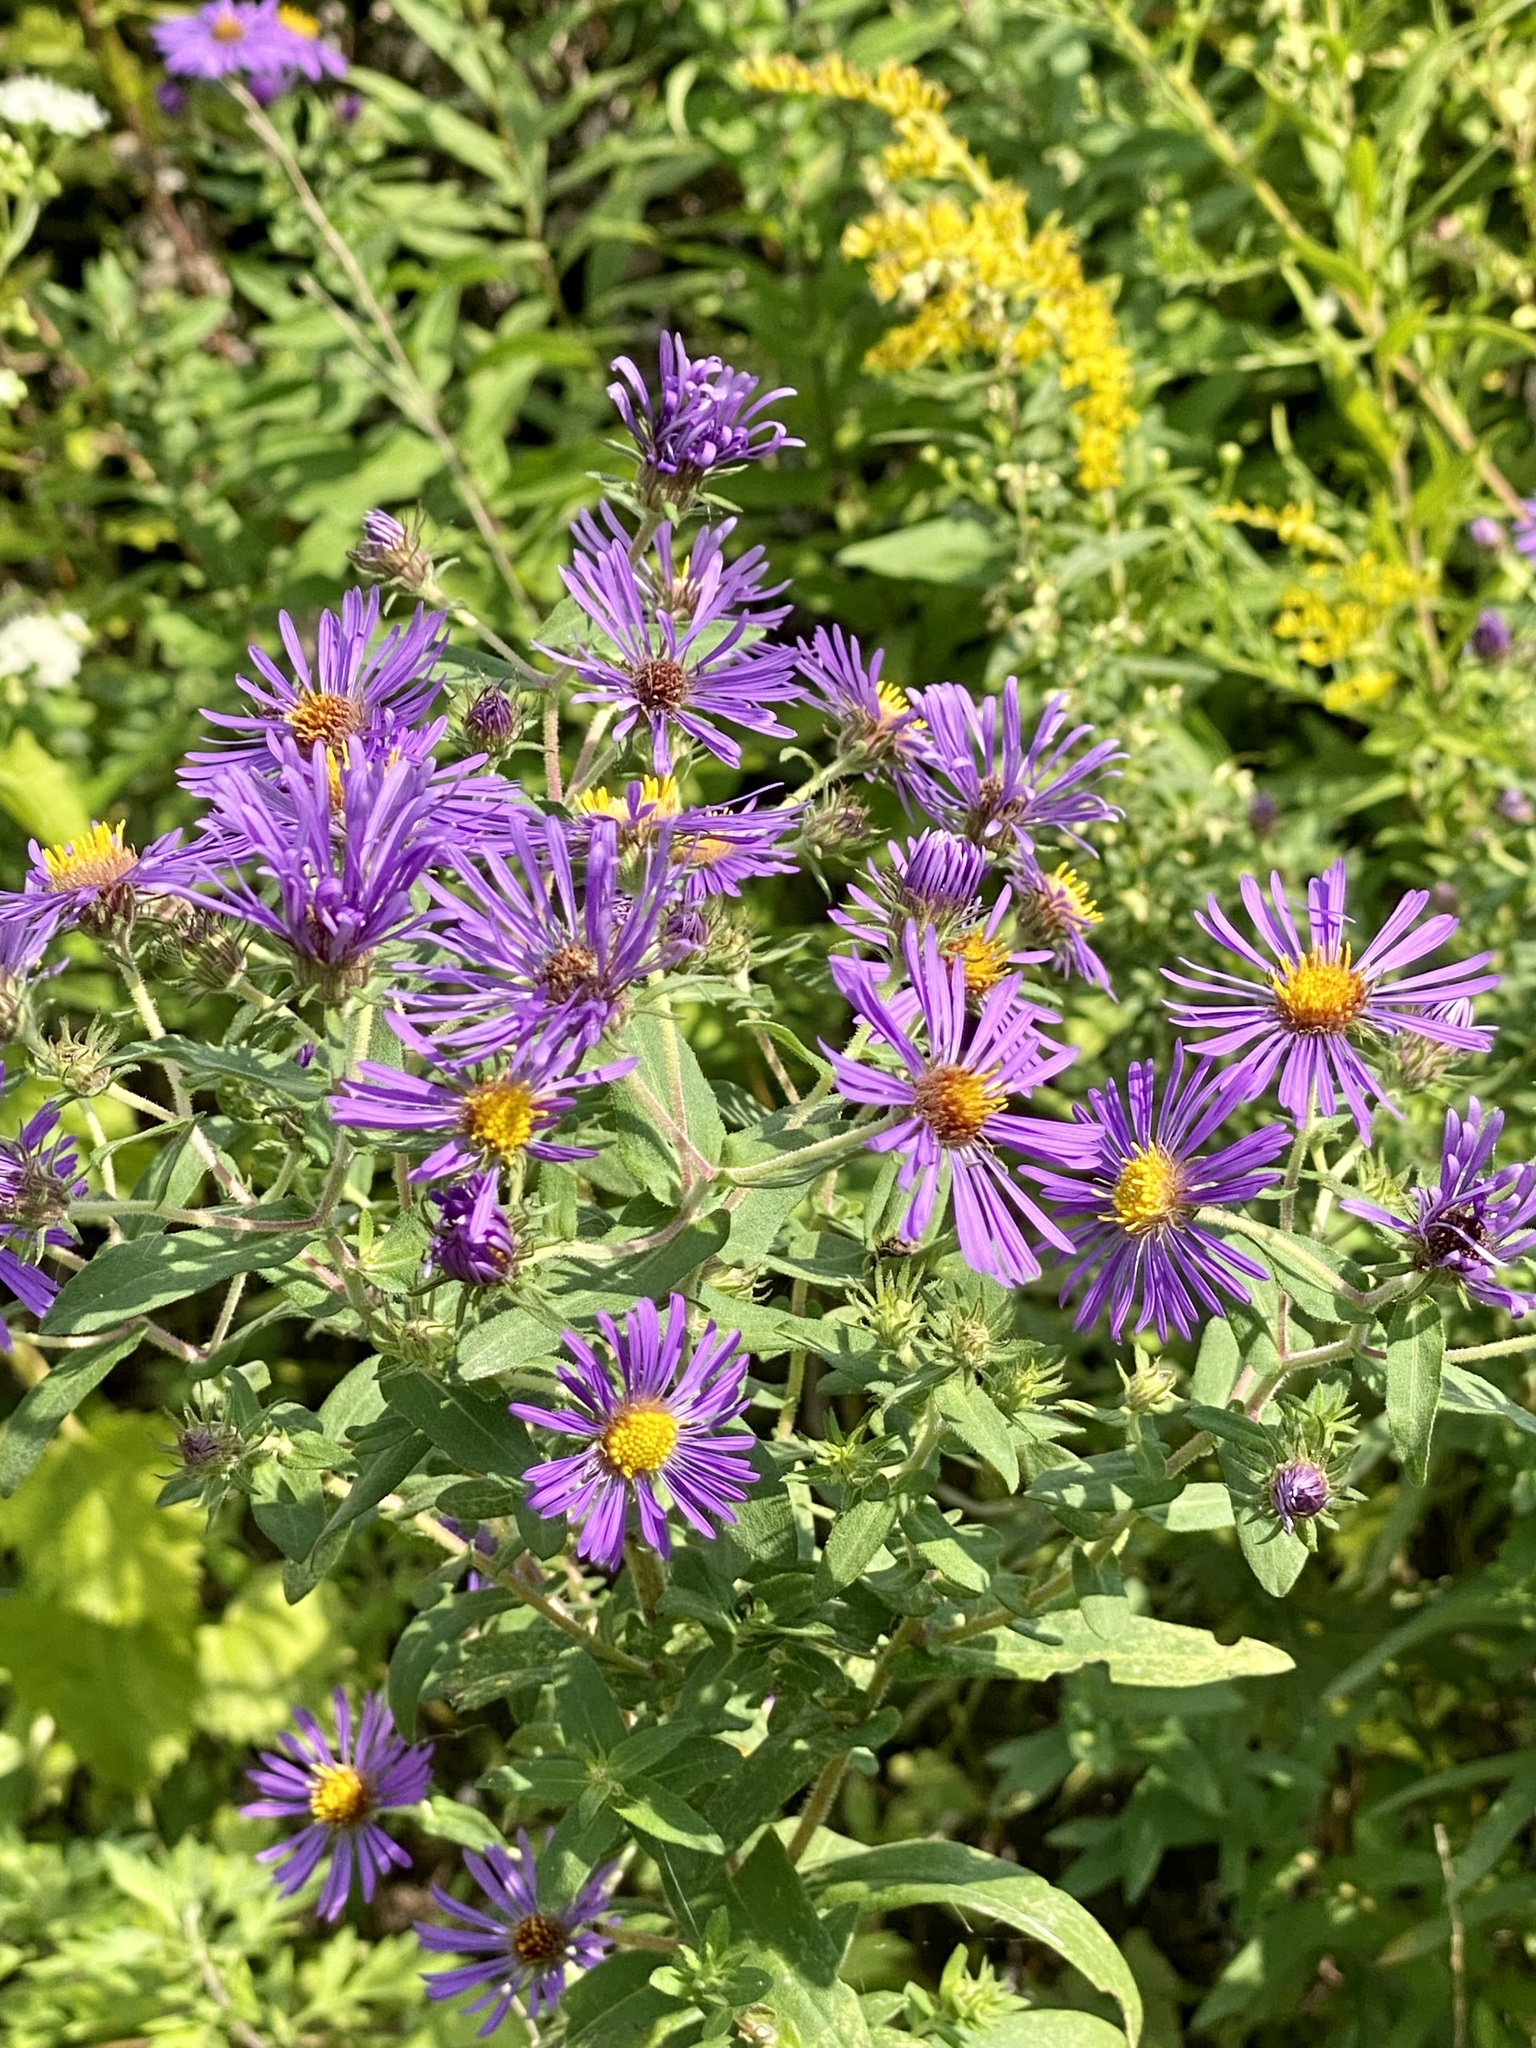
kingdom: Plantae
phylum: Tracheophyta
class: Magnoliopsida
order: Asterales
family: Asteraceae
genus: Symphyotrichum
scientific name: Symphyotrichum novae-angliae
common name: Michaelmas daisy
